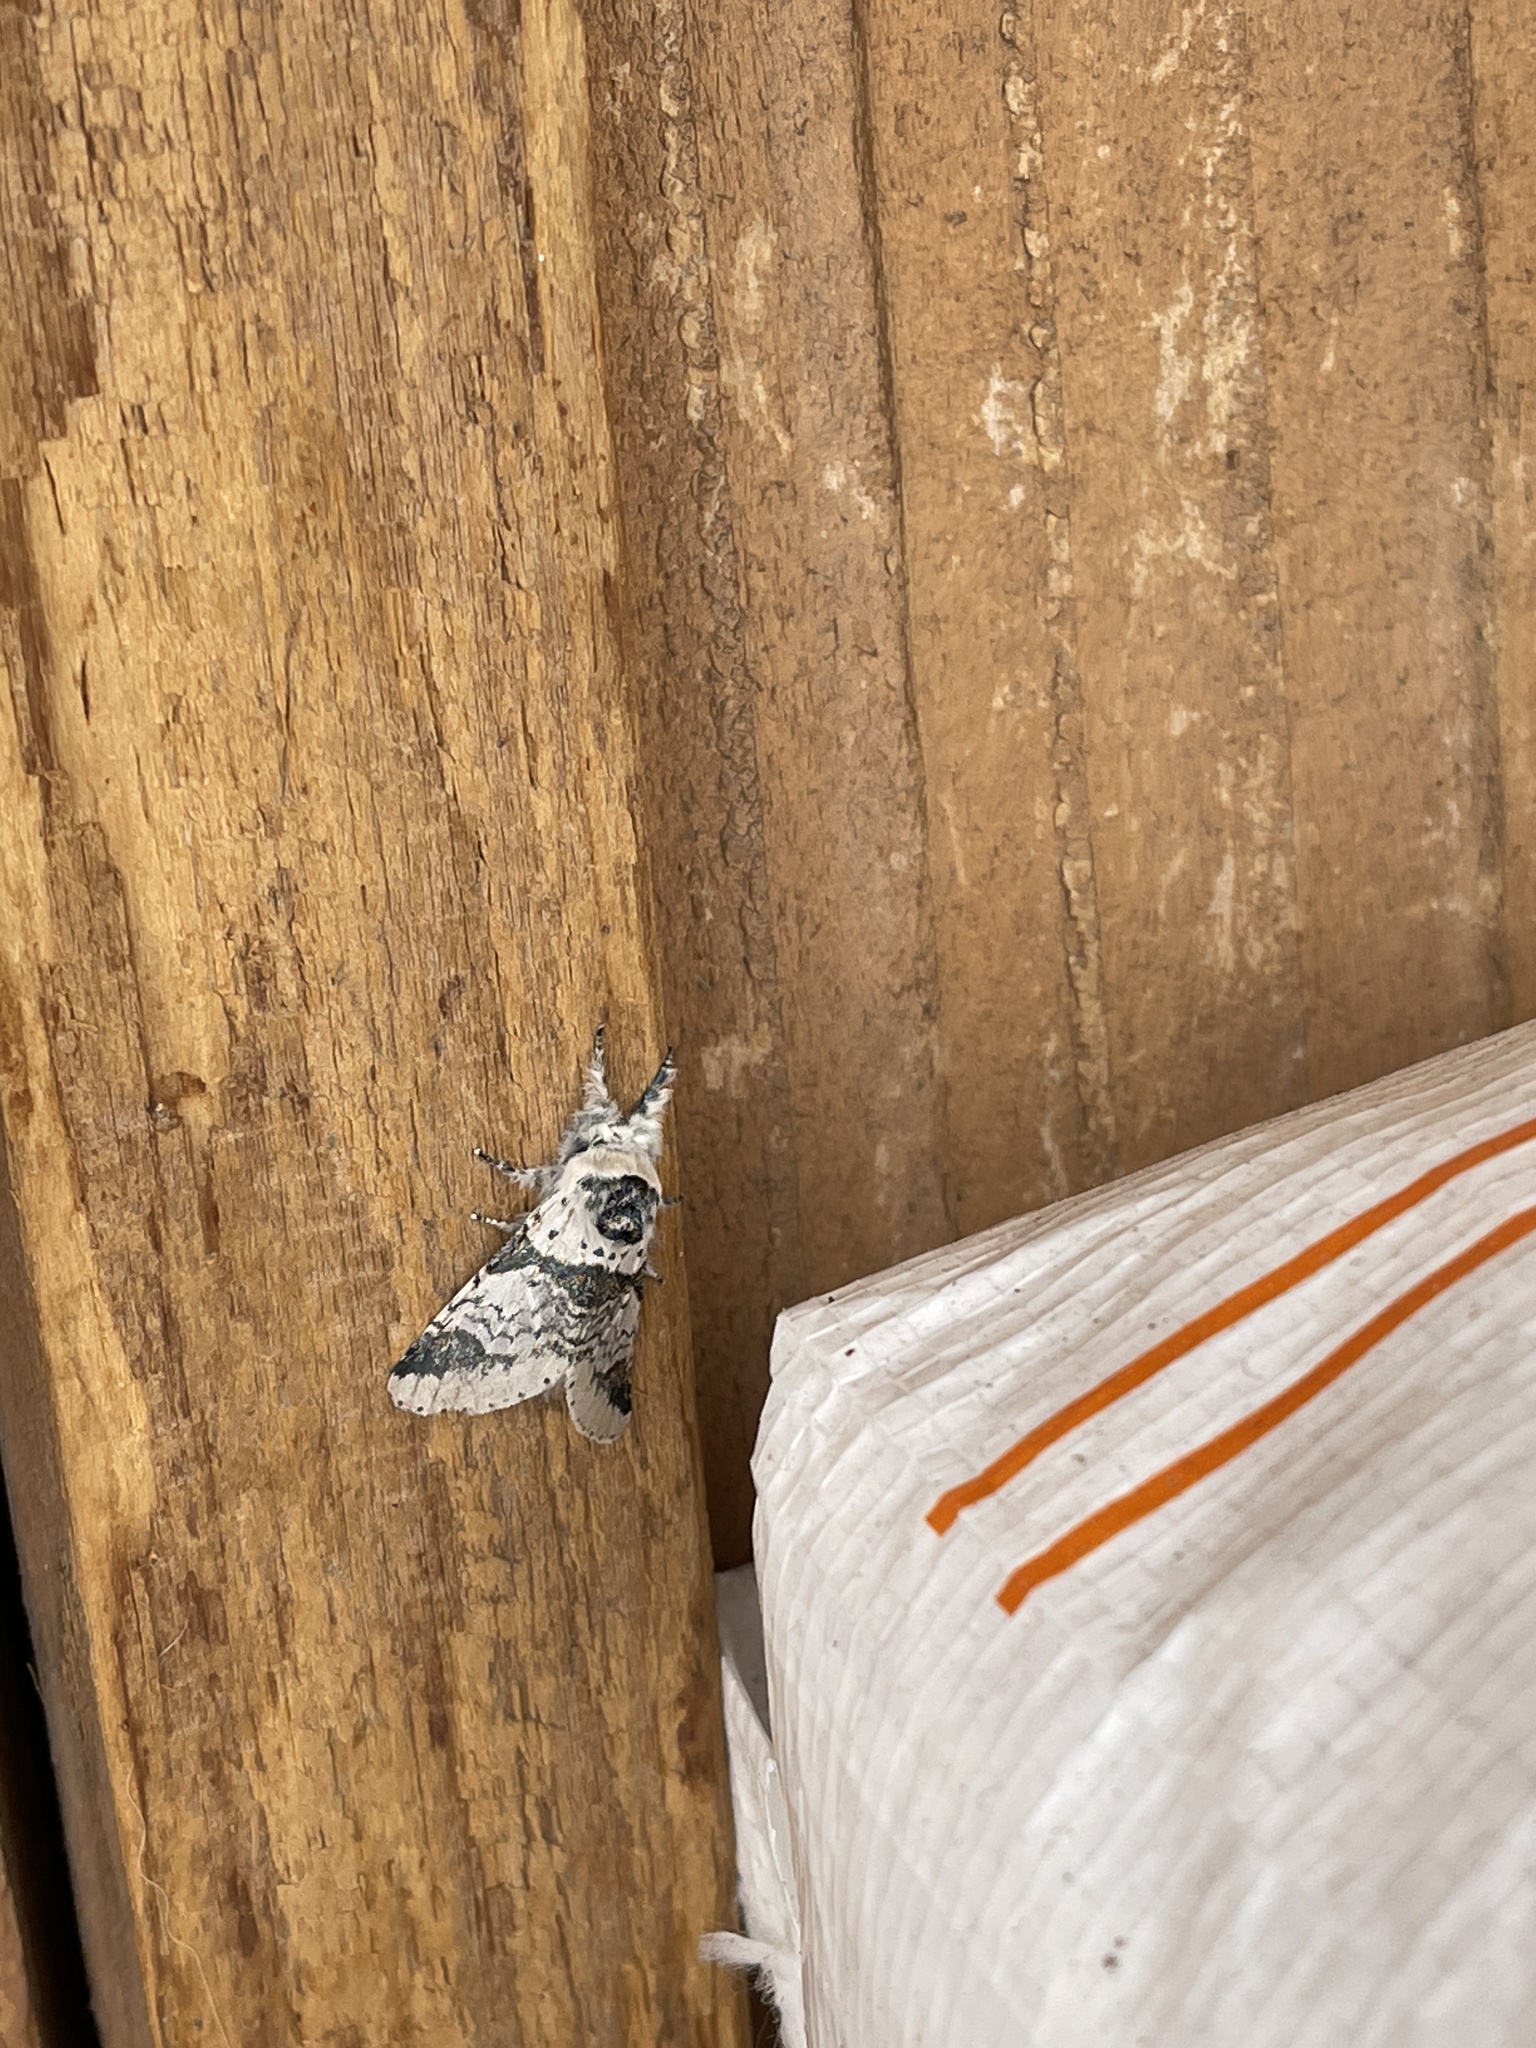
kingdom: Animalia
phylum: Arthropoda
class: Insecta
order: Lepidoptera
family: Notodontidae
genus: Furcula
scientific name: Furcula scolopendrina
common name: Zigzag furcula moth
